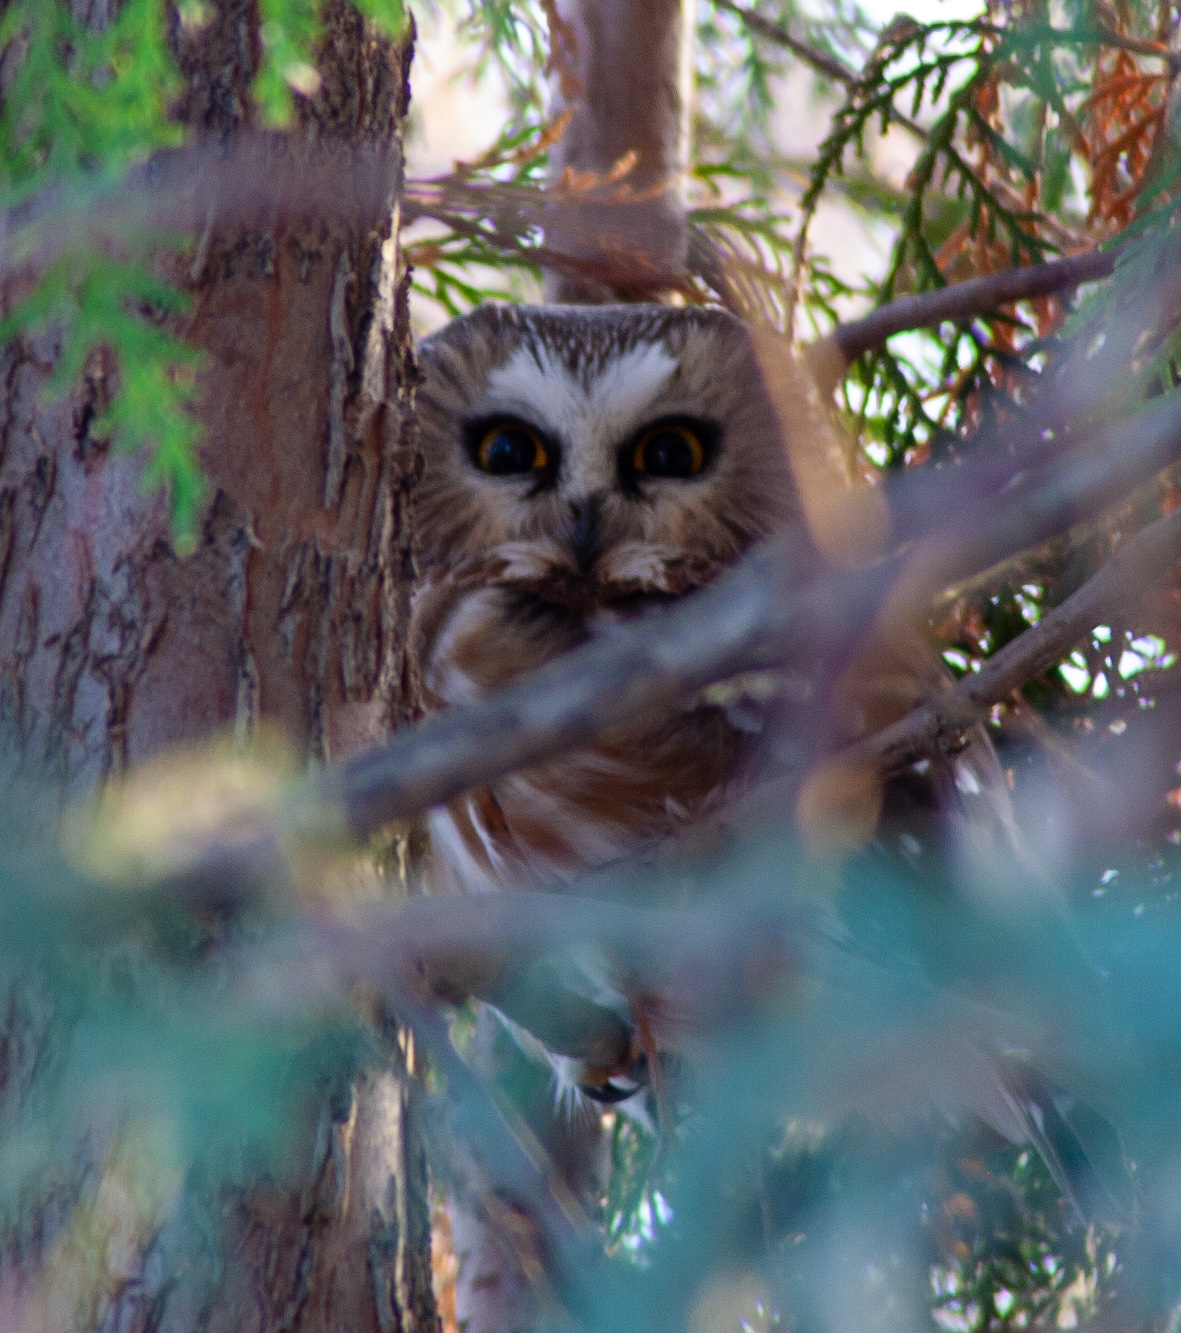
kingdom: Animalia
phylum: Chordata
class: Aves
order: Strigiformes
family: Strigidae
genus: Aegolius
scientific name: Aegolius acadicus
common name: Northern saw-whet owl
